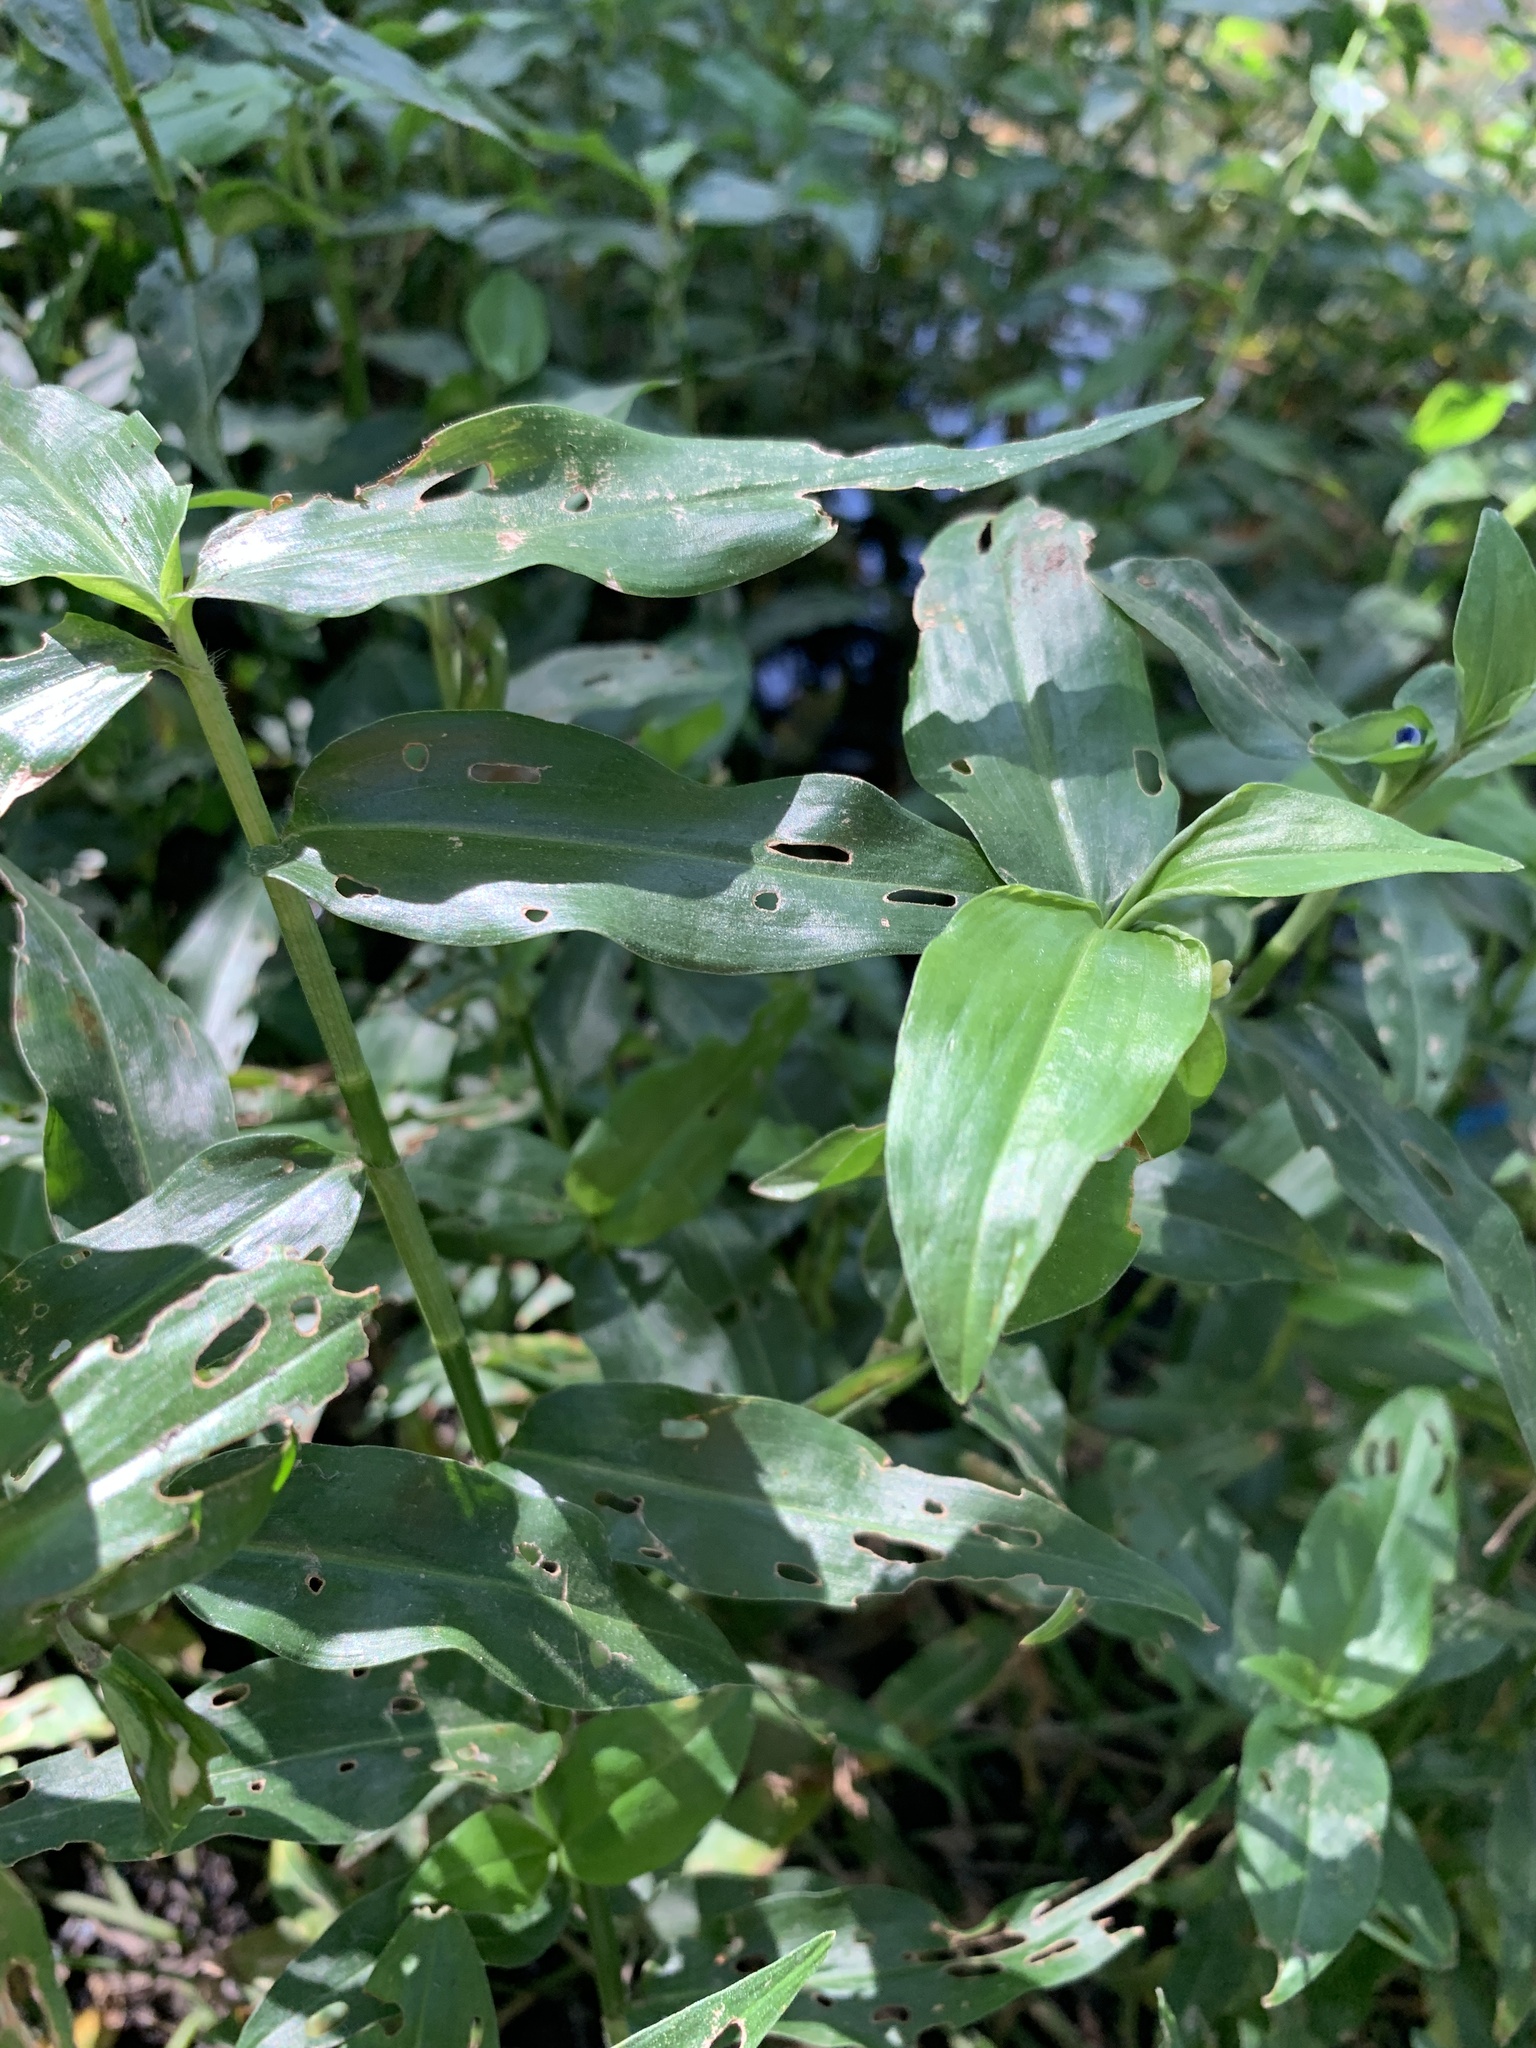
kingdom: Plantae
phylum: Tracheophyta
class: Liliopsida
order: Commelinales
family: Commelinaceae
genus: Commelina
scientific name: Commelina diffusa
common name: Climbing dayflower
